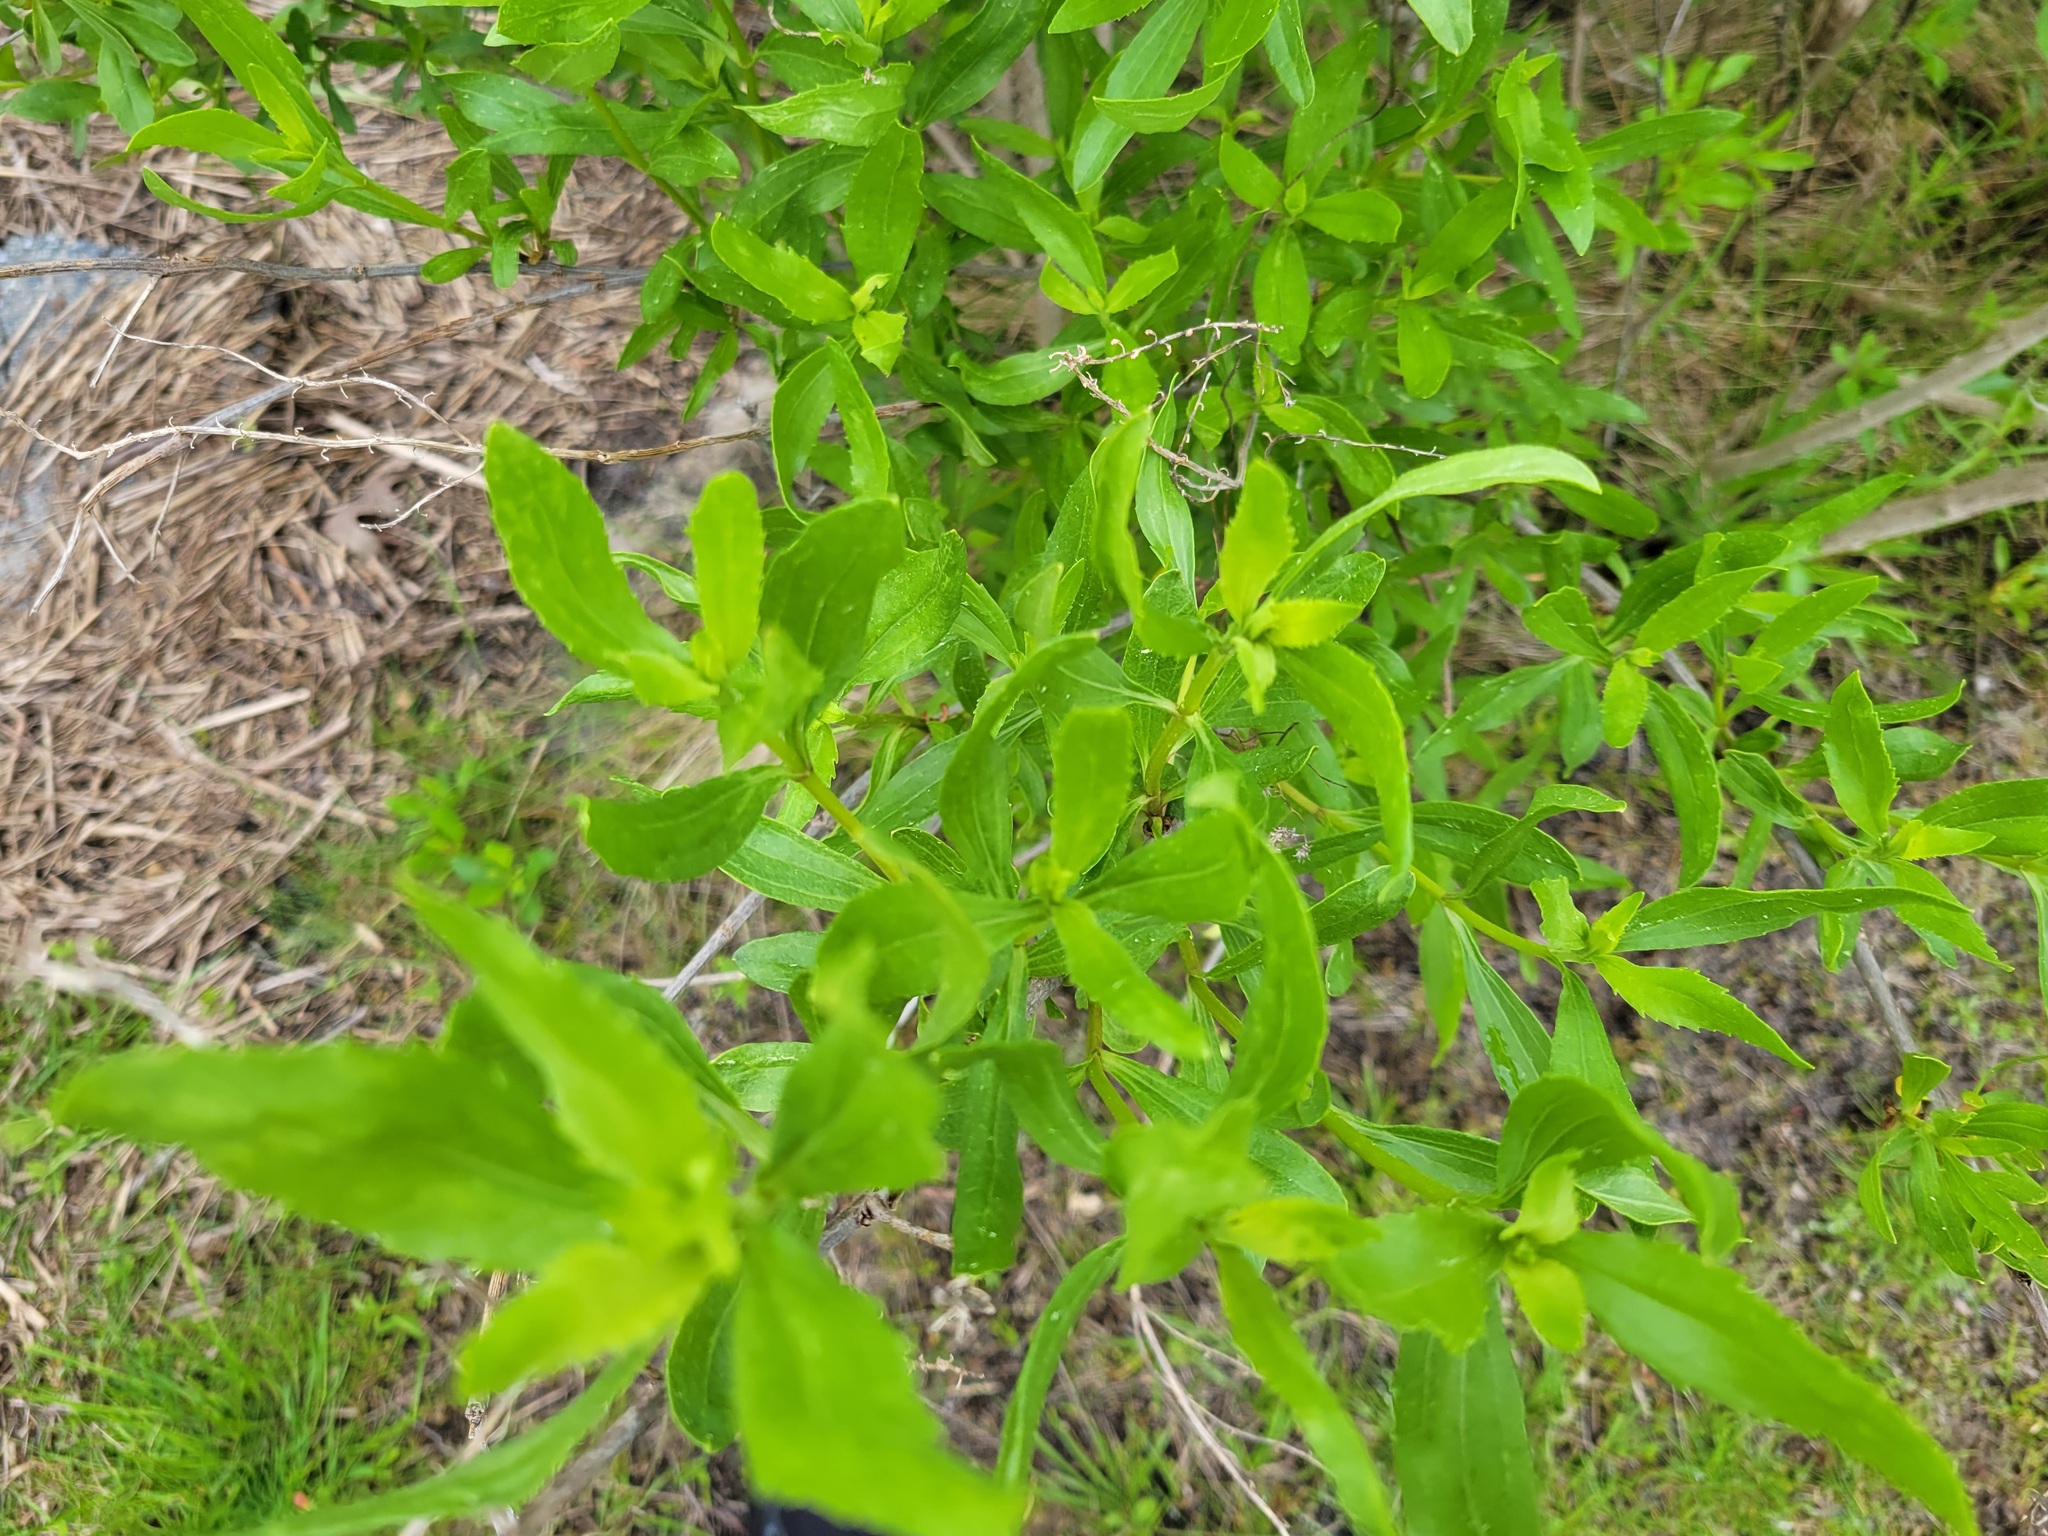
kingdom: Plantae
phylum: Tracheophyta
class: Magnoliopsida
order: Asterales
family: Asteraceae
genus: Iva
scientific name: Iva frutescens
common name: Big-leaved marsh-elder
